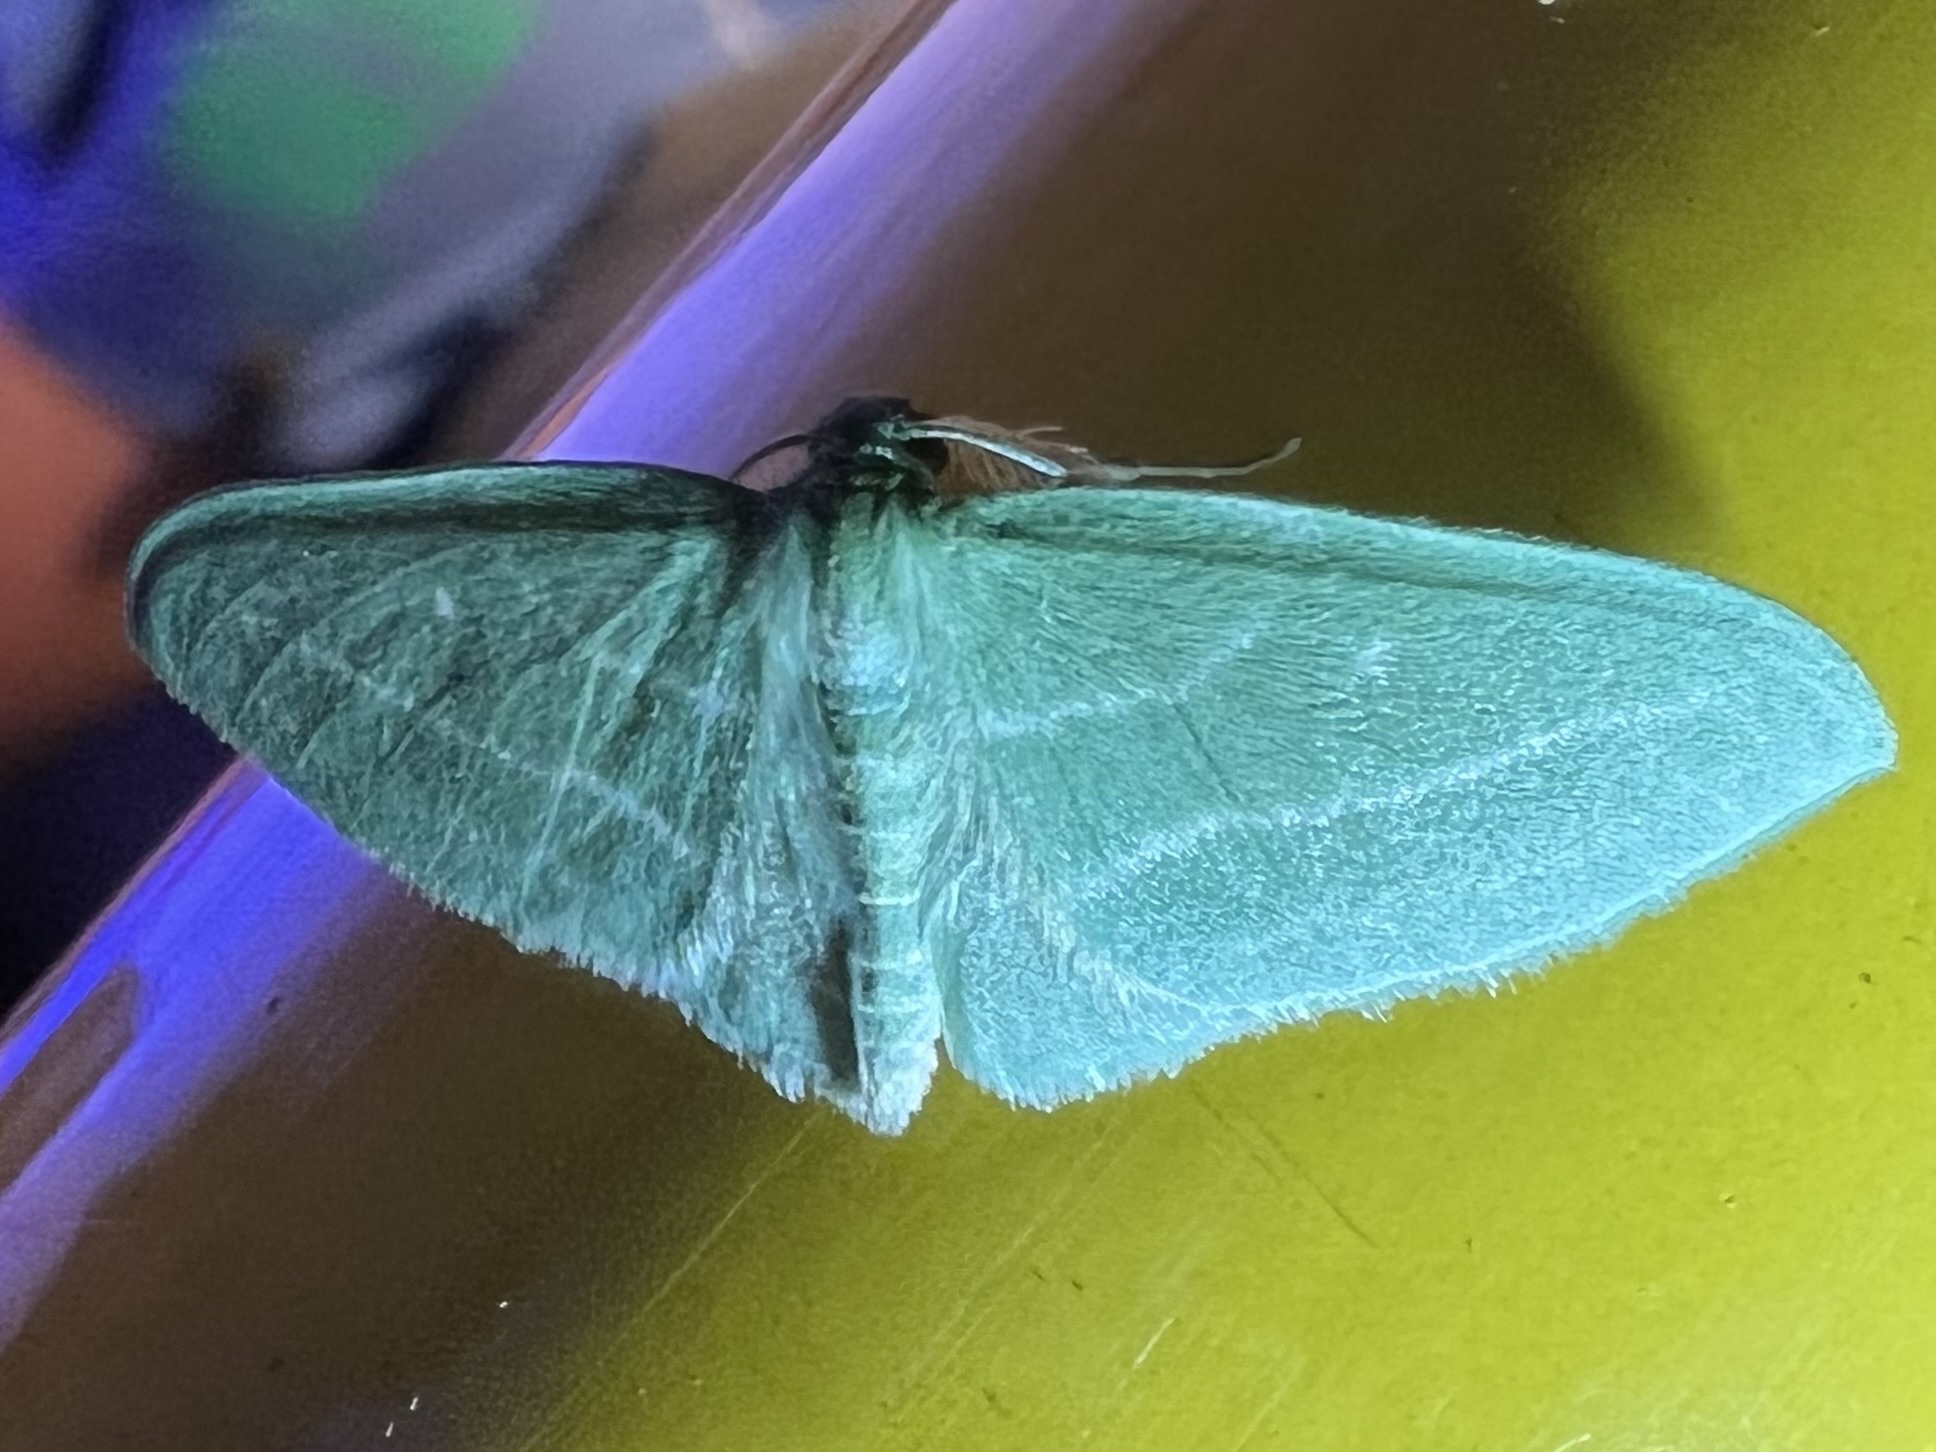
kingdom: Animalia
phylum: Arthropoda
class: Insecta
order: Lepidoptera
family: Geometridae
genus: Dyspteris
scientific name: Dyspteris abortivaria
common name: Bad-wing
